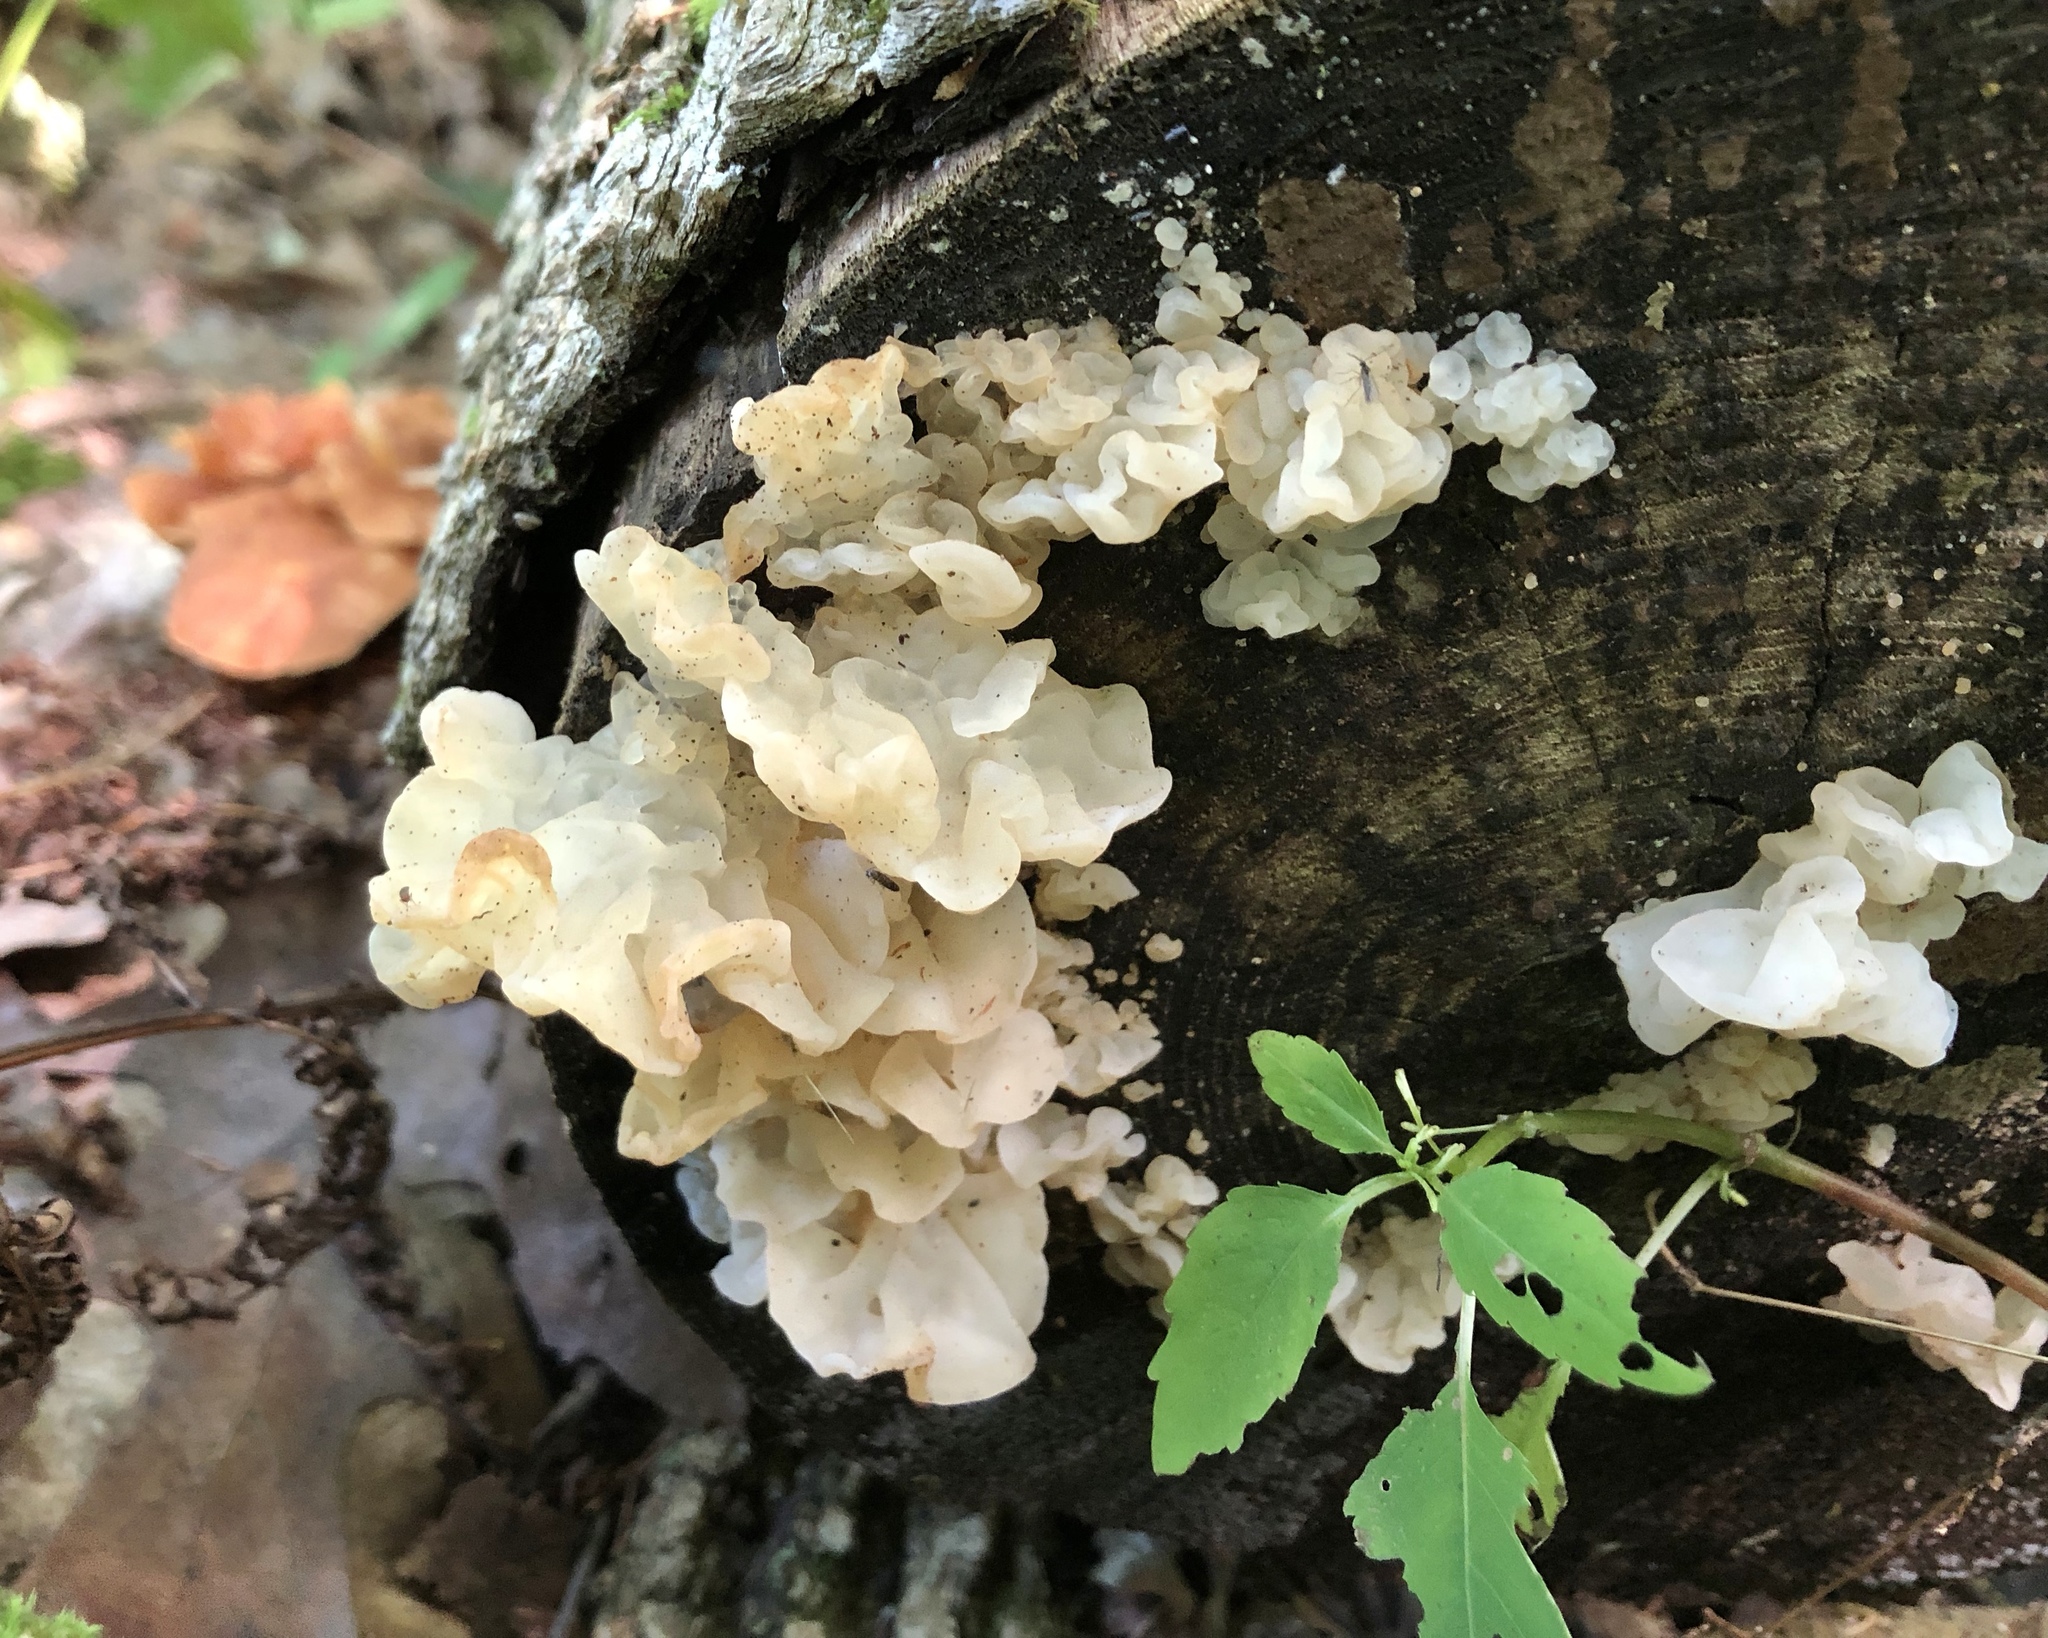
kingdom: Fungi
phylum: Basidiomycota
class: Agaricomycetes
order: Auriculariales
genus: Ductifera
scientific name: Ductifera pululahuana
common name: White jelly fungus
